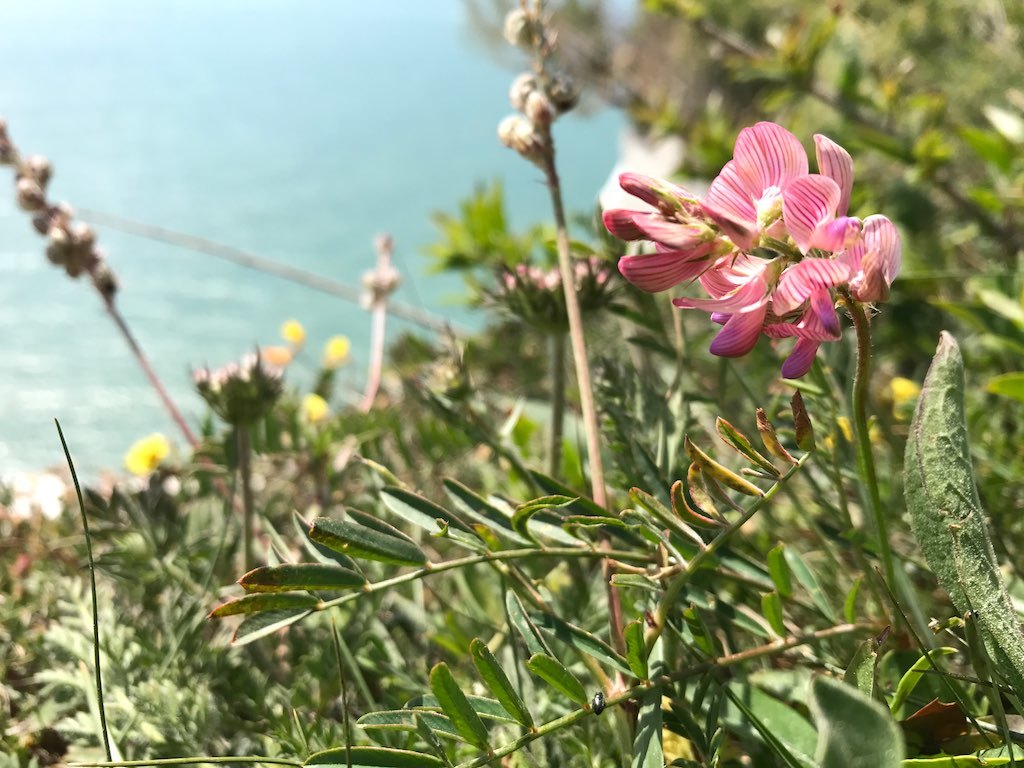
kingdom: Plantae
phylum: Tracheophyta
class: Magnoliopsida
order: Fabales
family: Fabaceae
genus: Onobrychis
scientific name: Onobrychis viciifolia
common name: Sainfoin
